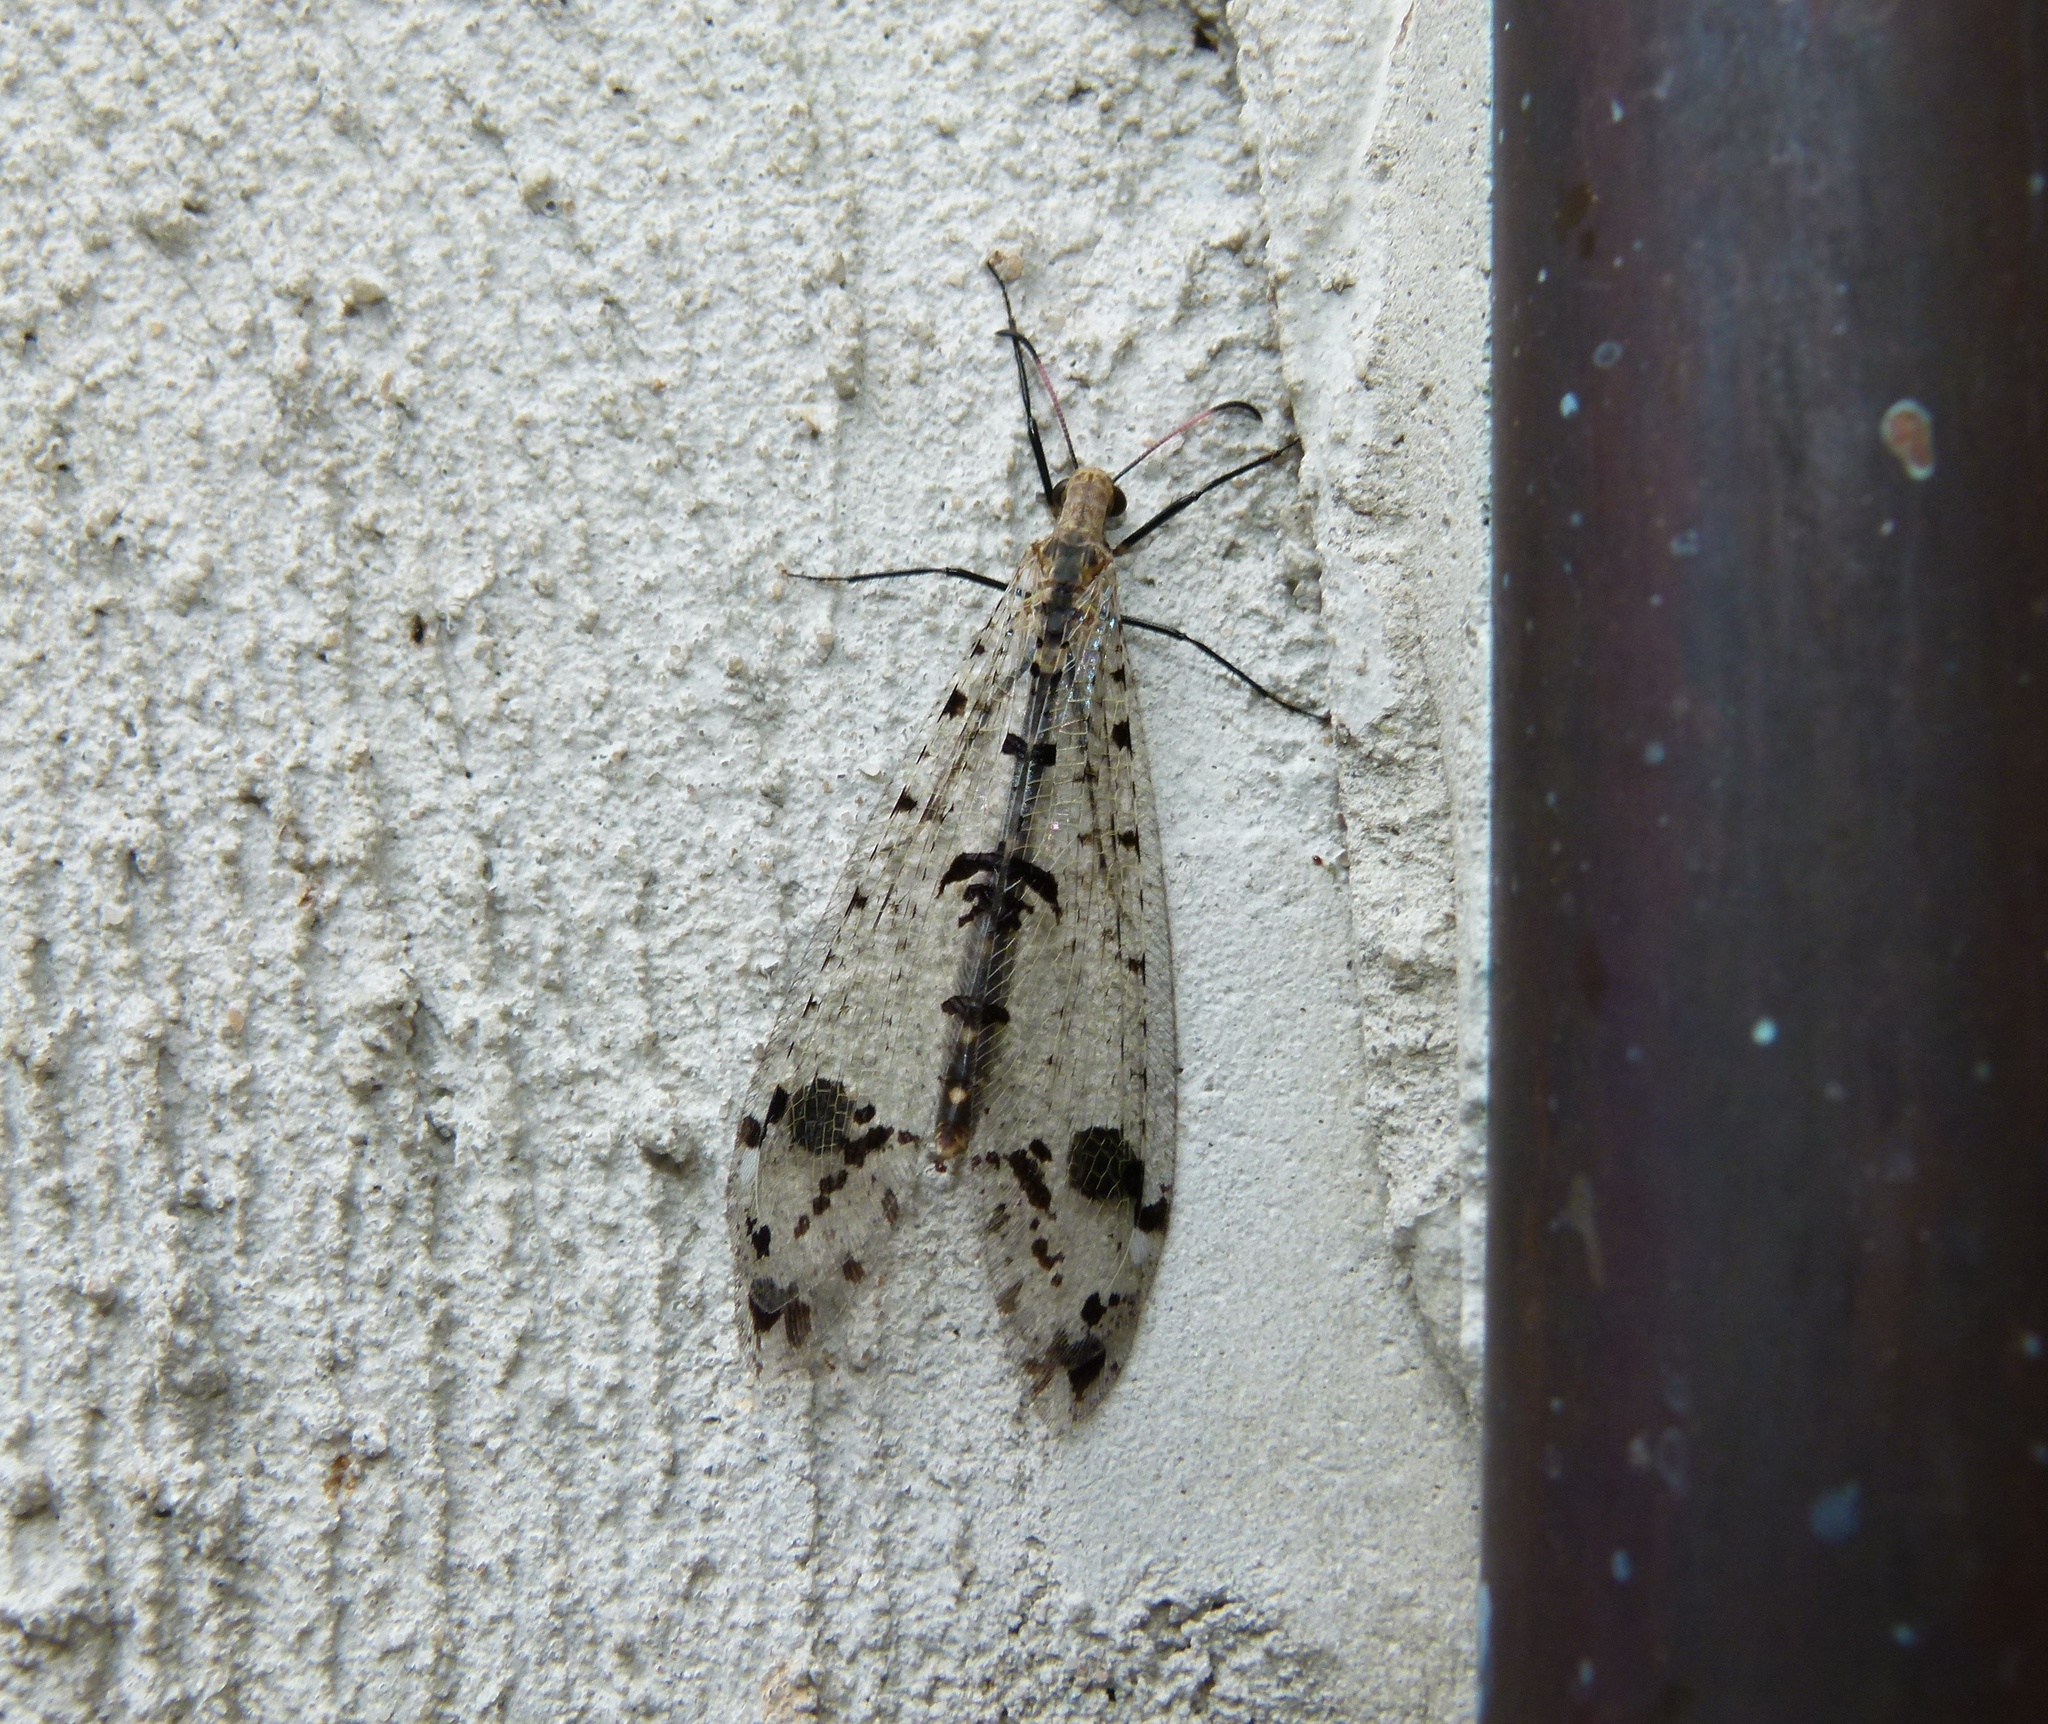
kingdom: Animalia
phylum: Arthropoda
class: Insecta
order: Neuroptera
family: Myrmeleontidae
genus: Dendroleon
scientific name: Dendroleon obsoletus
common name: Eastern spotted-winged antlion
